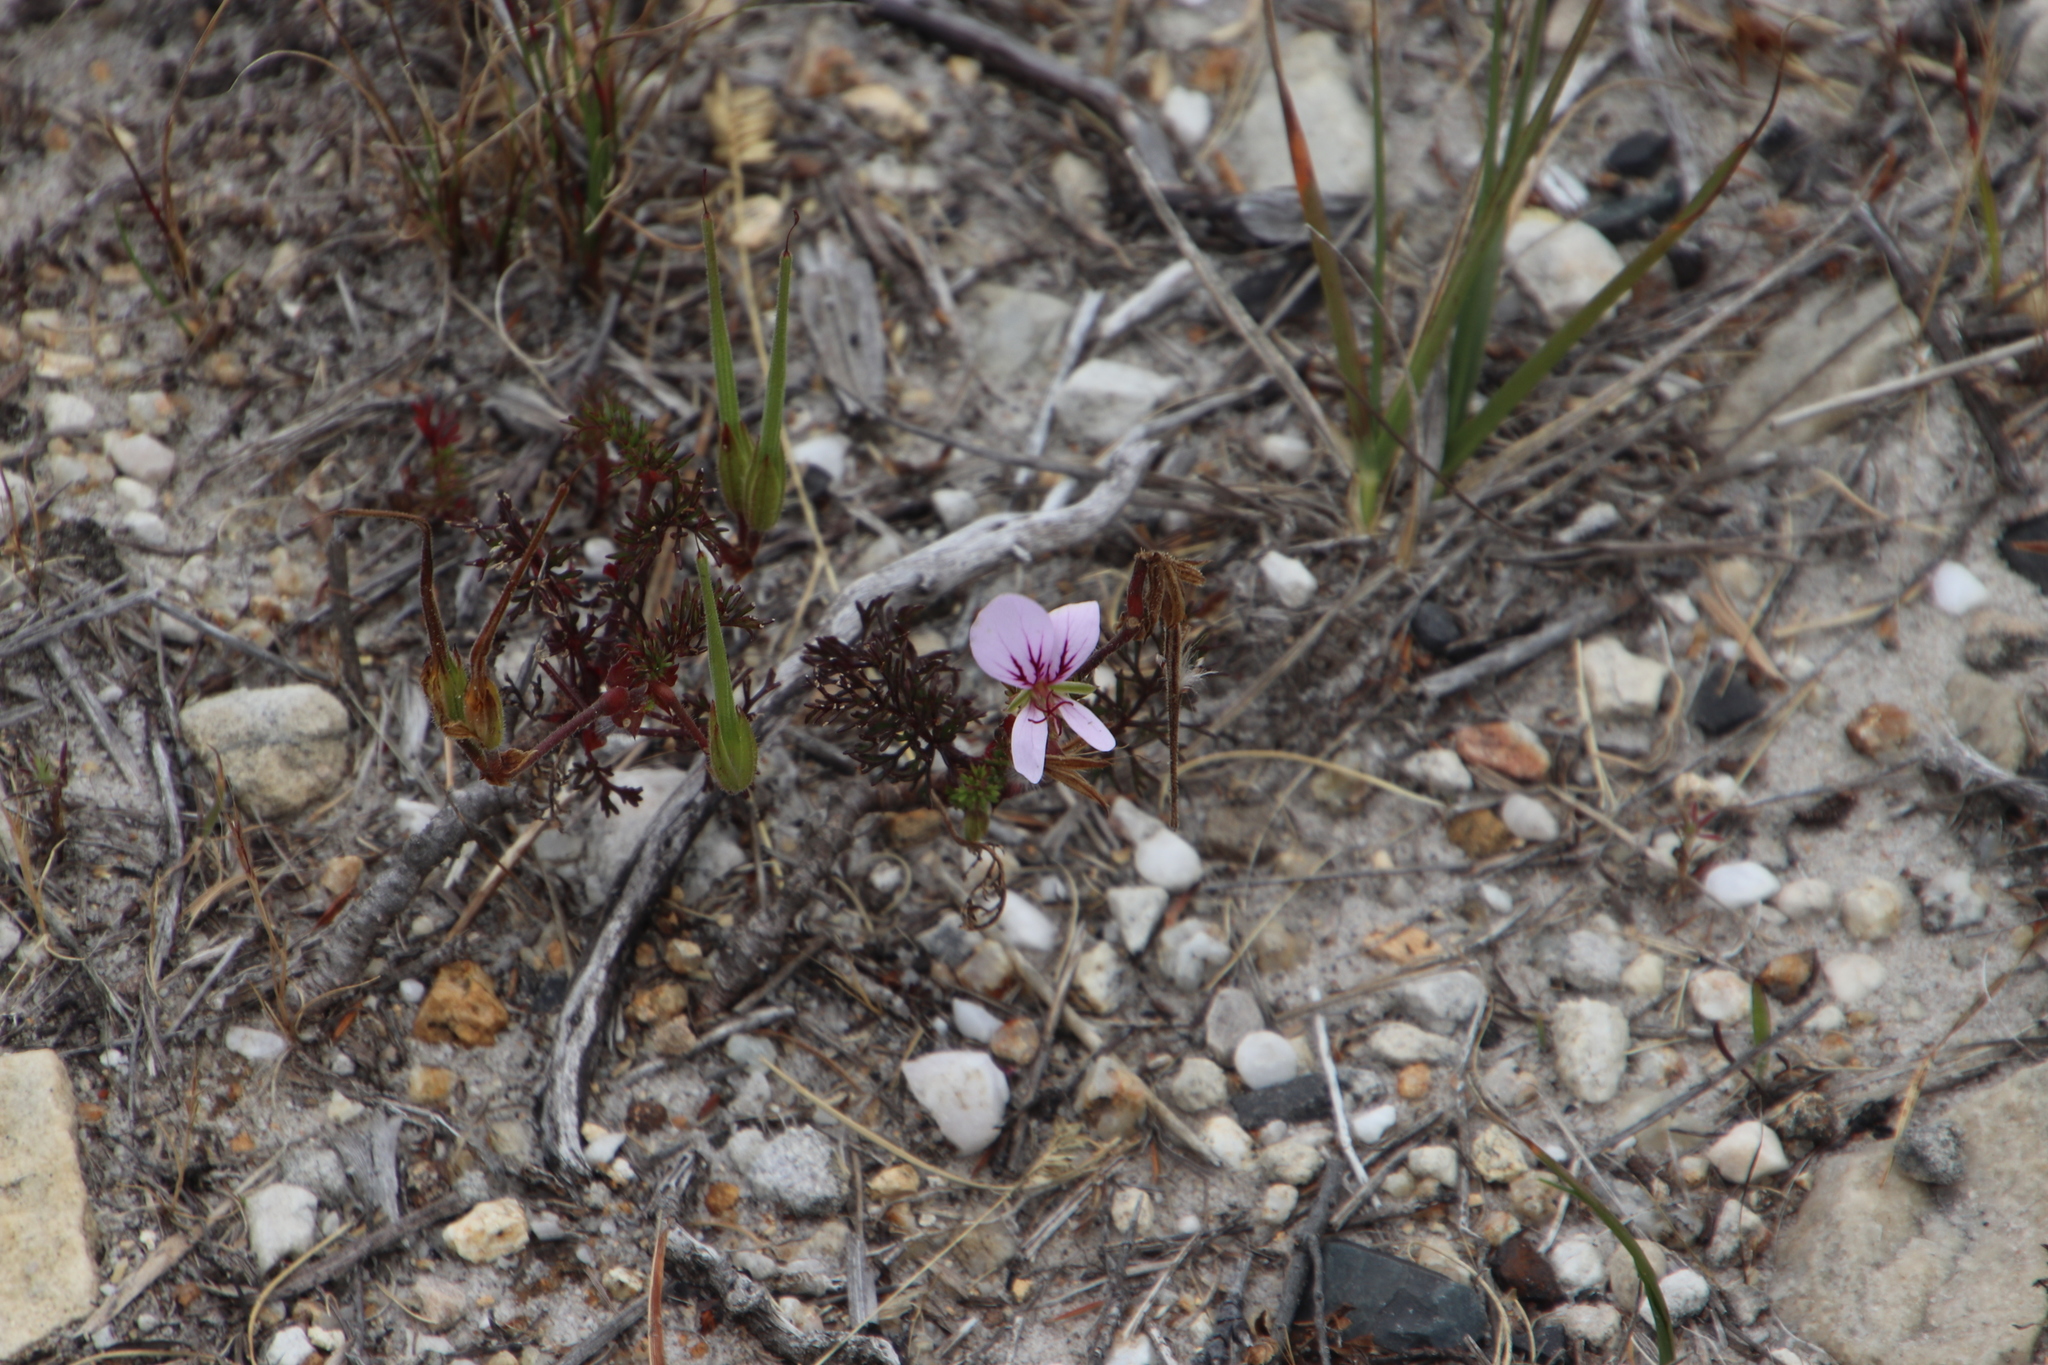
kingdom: Plantae
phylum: Tracheophyta
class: Magnoliopsida
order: Geraniales
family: Geraniaceae
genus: Pelargonium
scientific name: Pelargonium myrrhifolium
